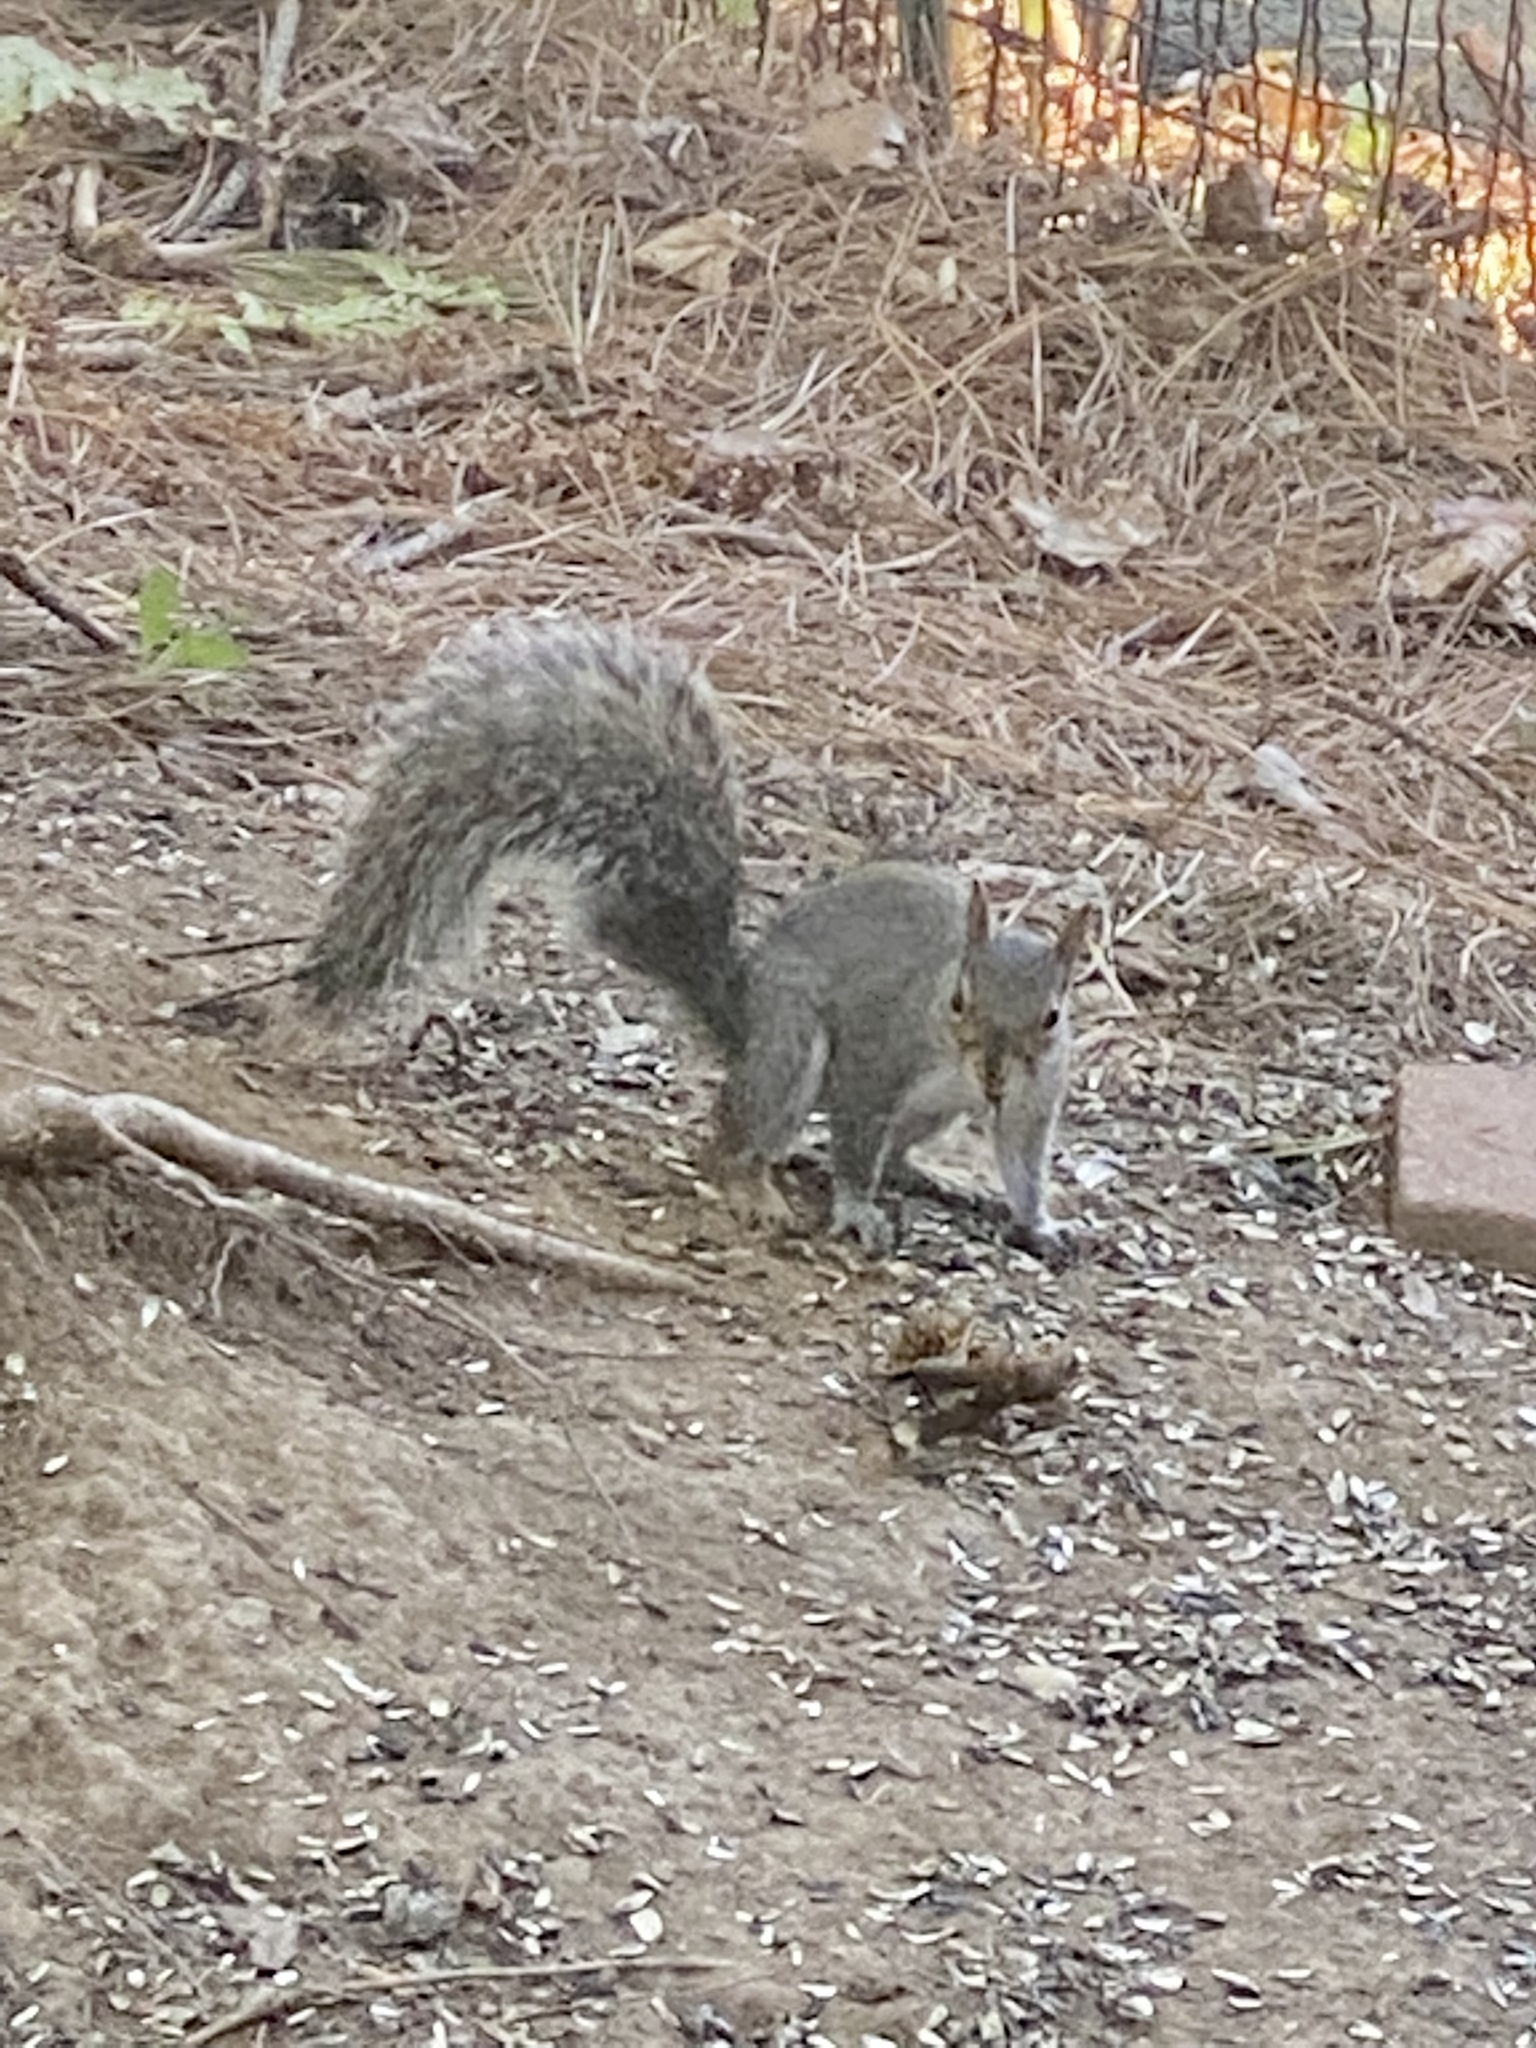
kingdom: Animalia
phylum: Chordata
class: Mammalia
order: Rodentia
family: Sciuridae
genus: Sciurus
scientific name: Sciurus carolinensis
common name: Eastern gray squirrel
